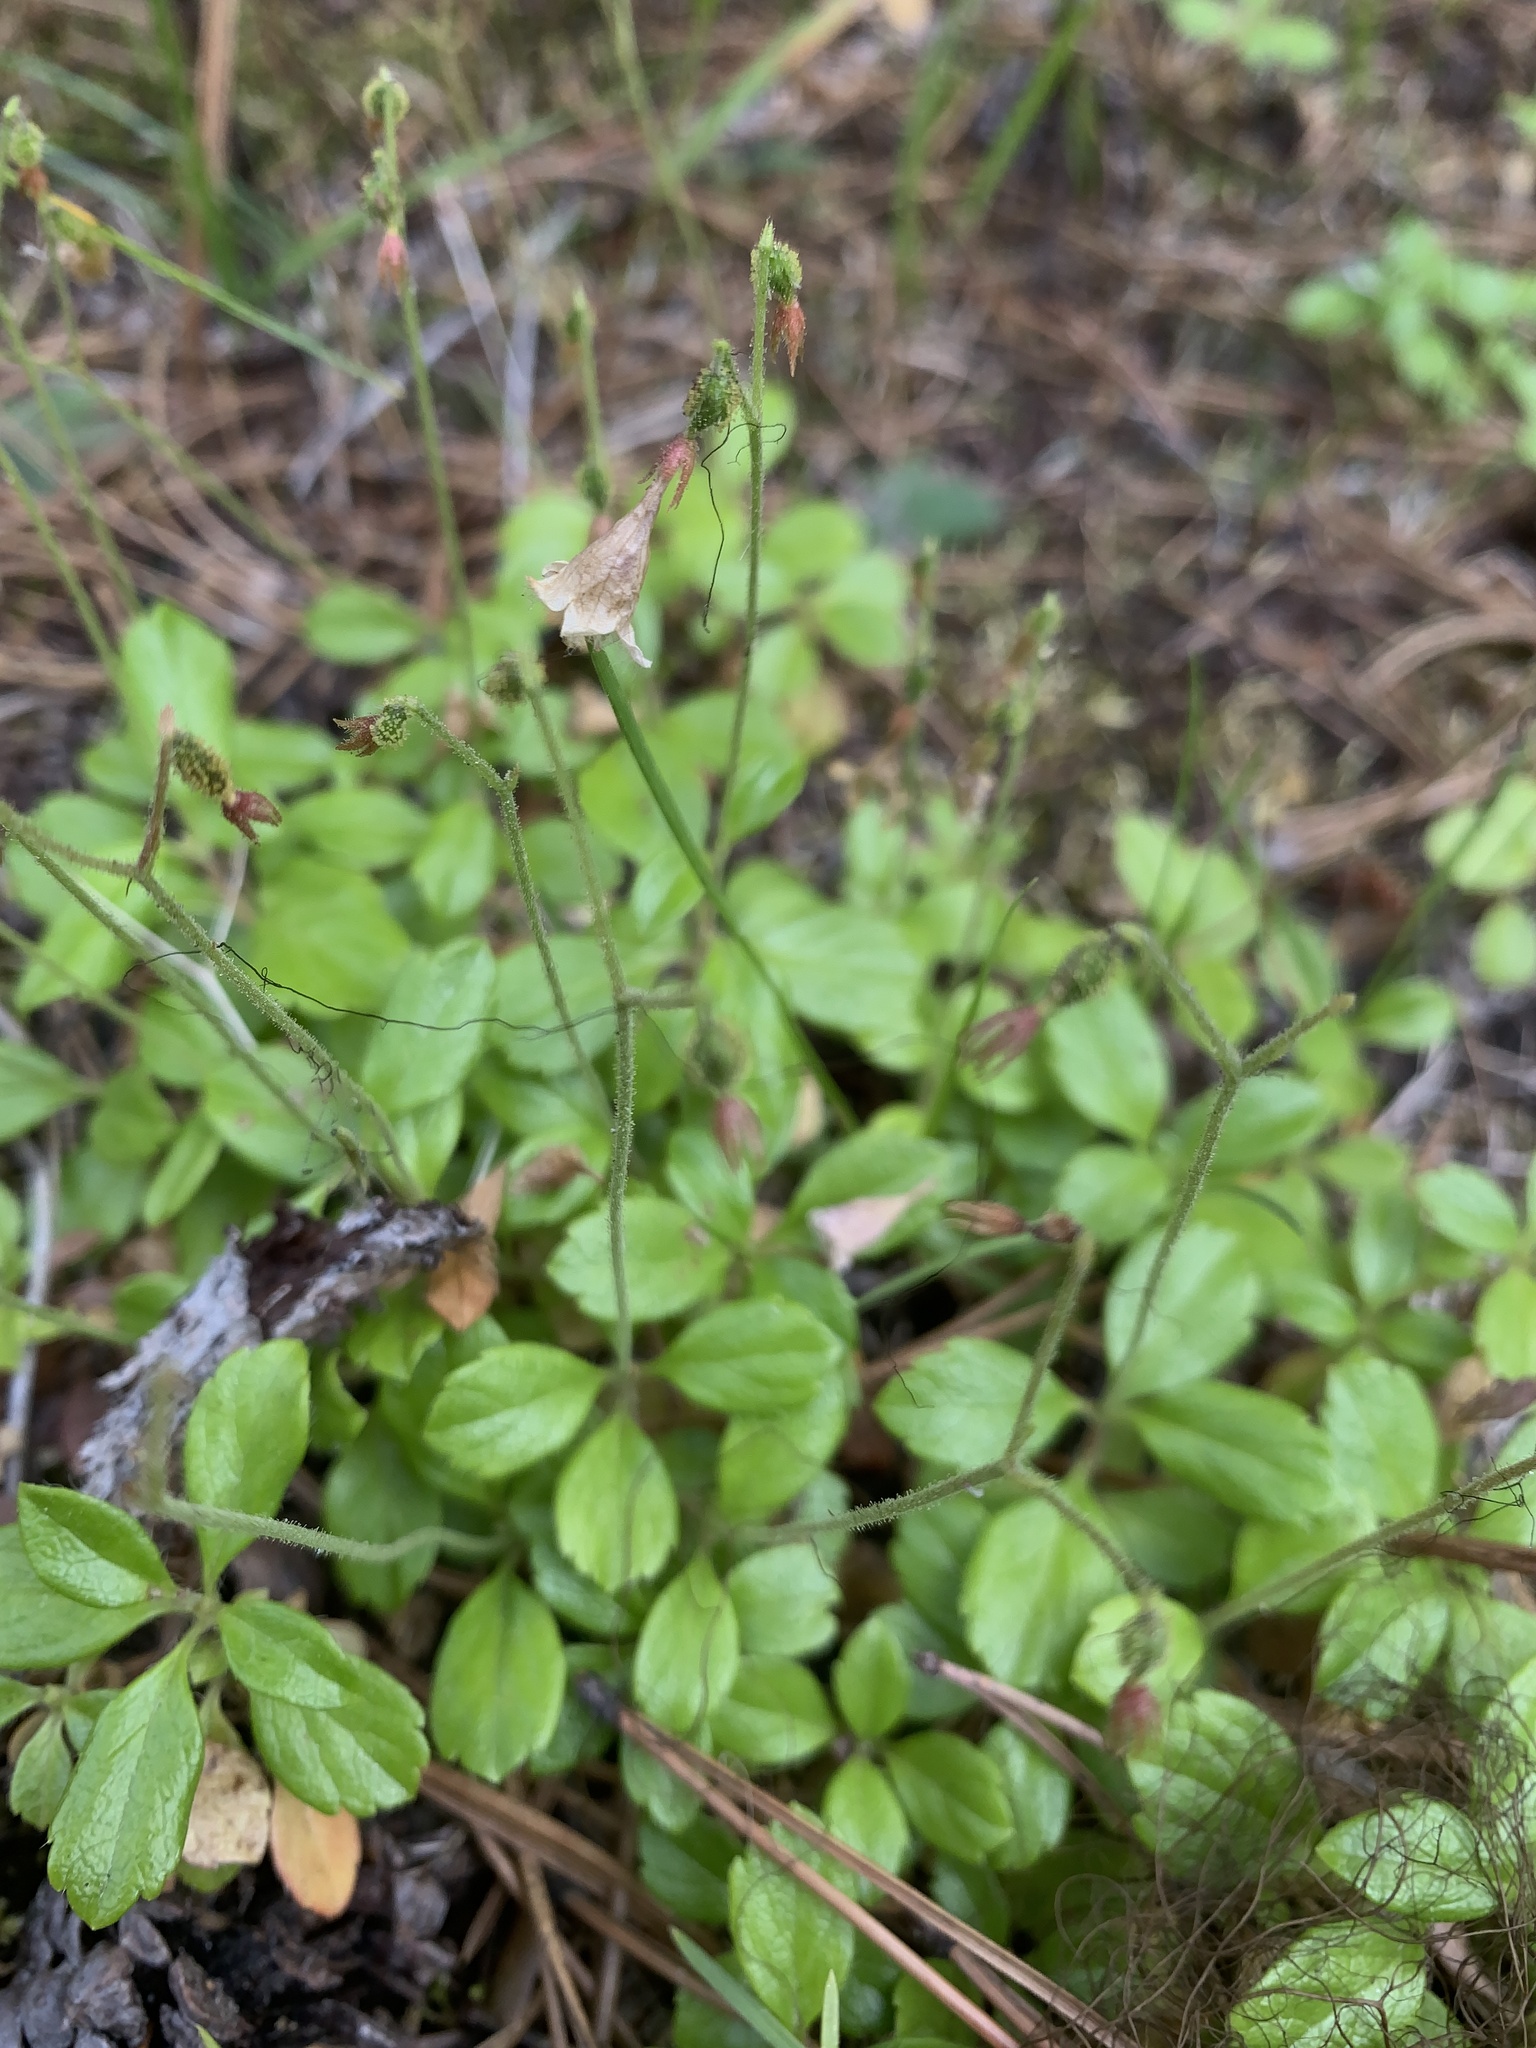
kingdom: Plantae
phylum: Tracheophyta
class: Magnoliopsida
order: Dipsacales
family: Caprifoliaceae
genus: Linnaea
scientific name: Linnaea borealis
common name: Twinflower
